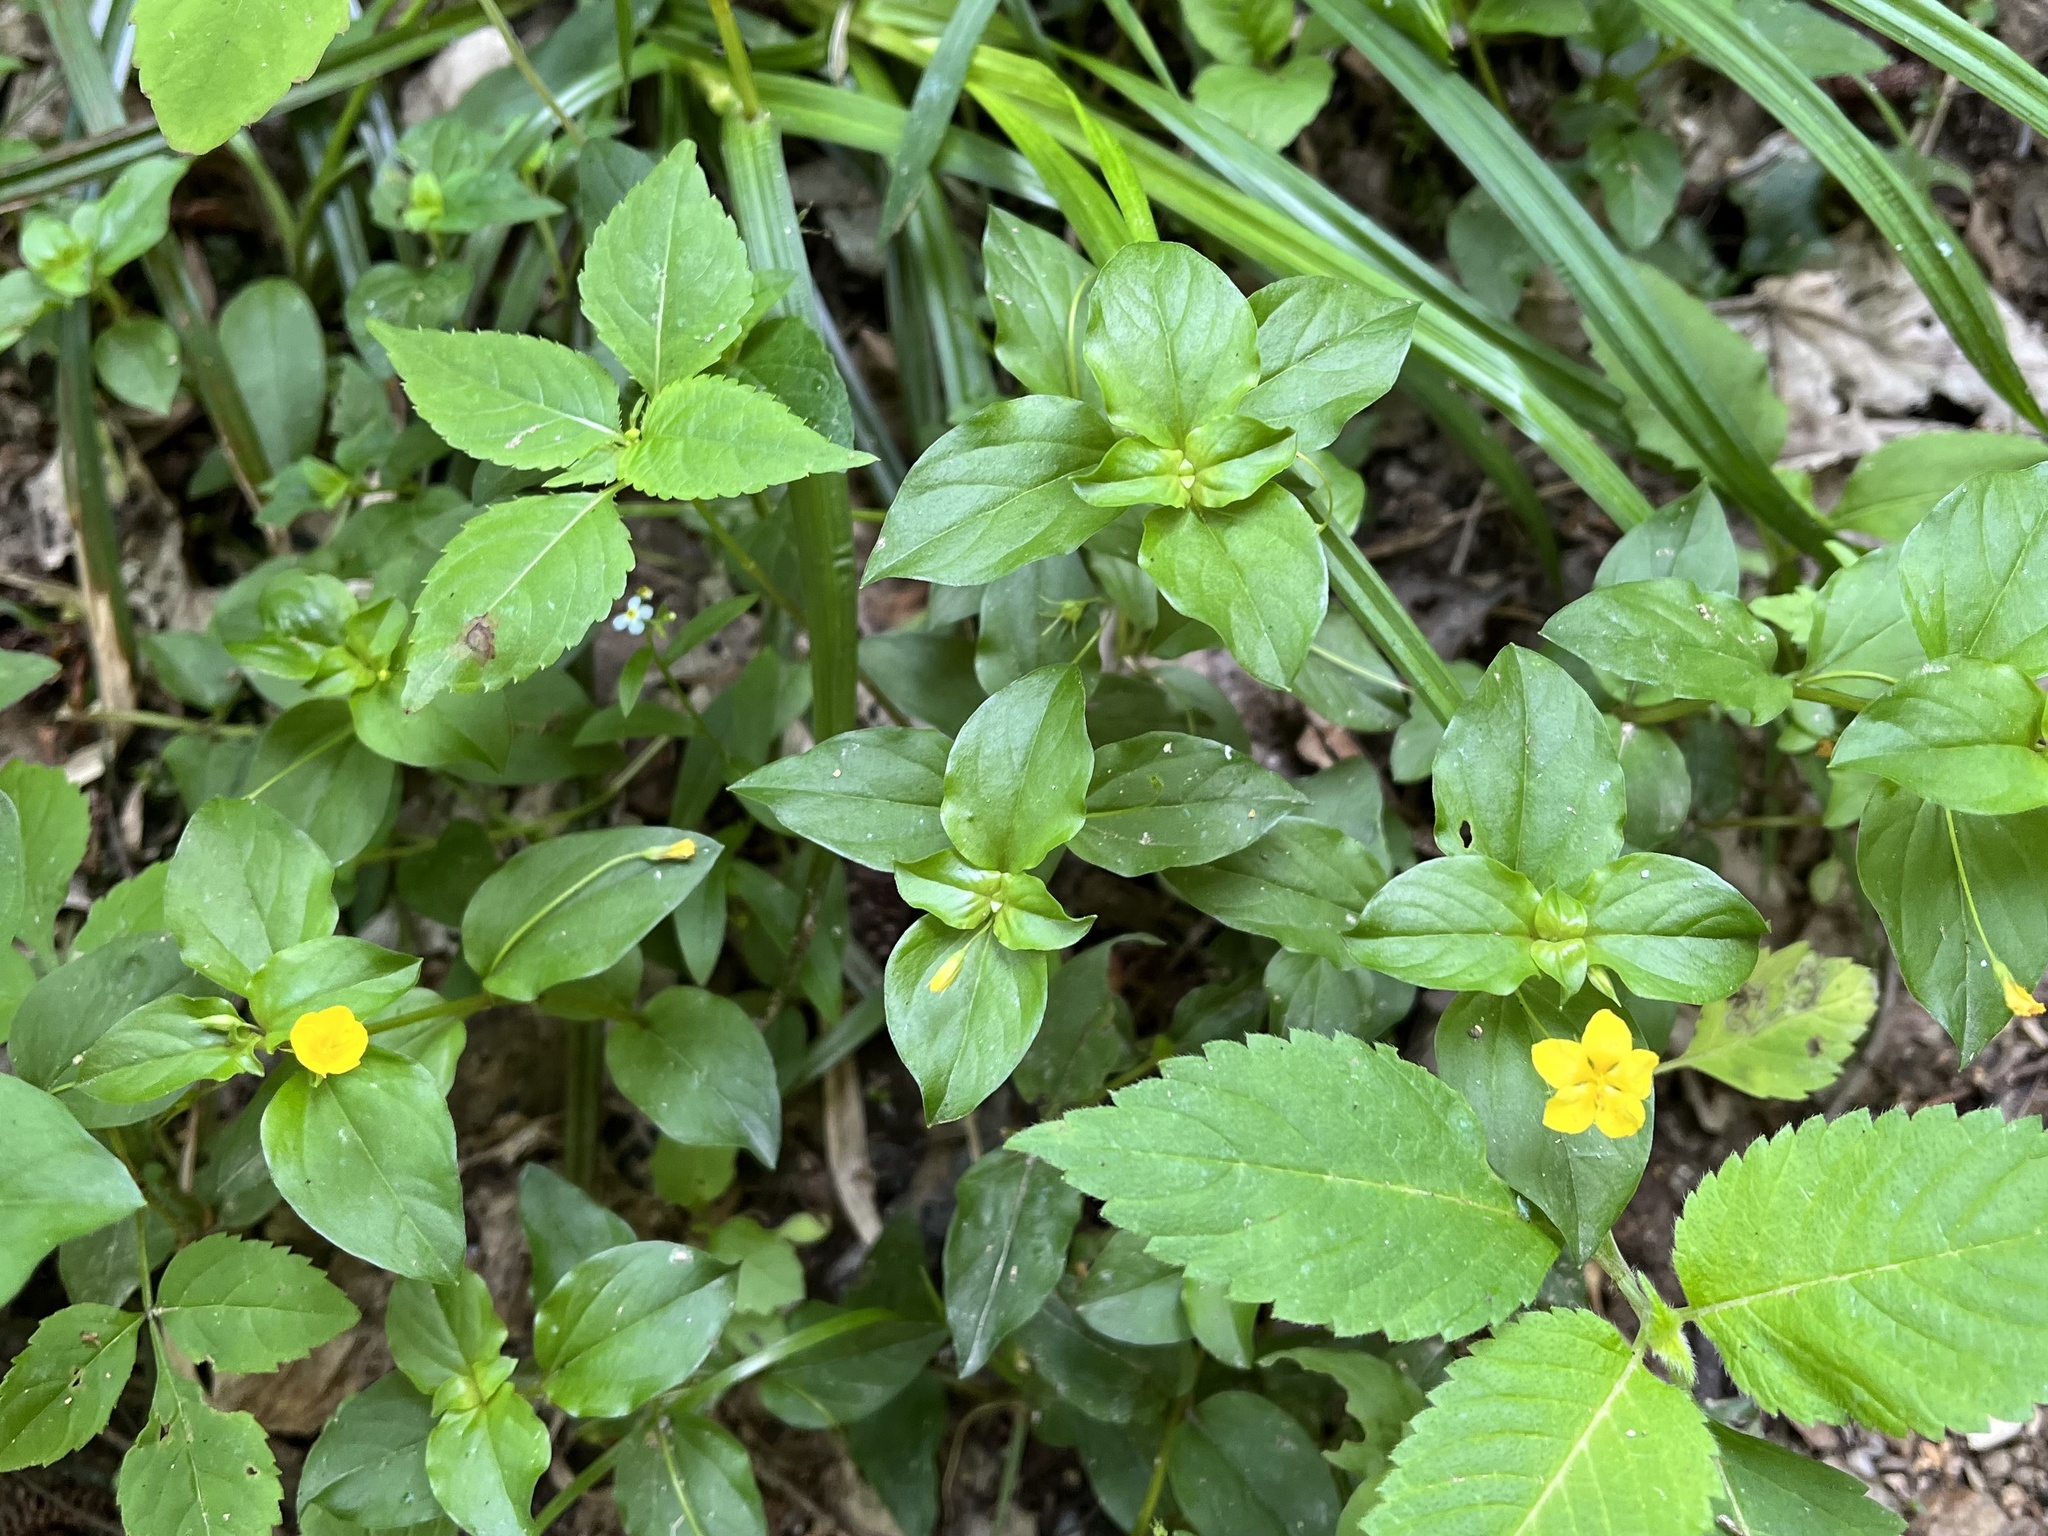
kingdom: Plantae
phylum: Tracheophyta
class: Magnoliopsida
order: Ericales
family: Primulaceae
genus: Lysimachia
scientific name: Lysimachia nemorum
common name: Yellow pimpernel
